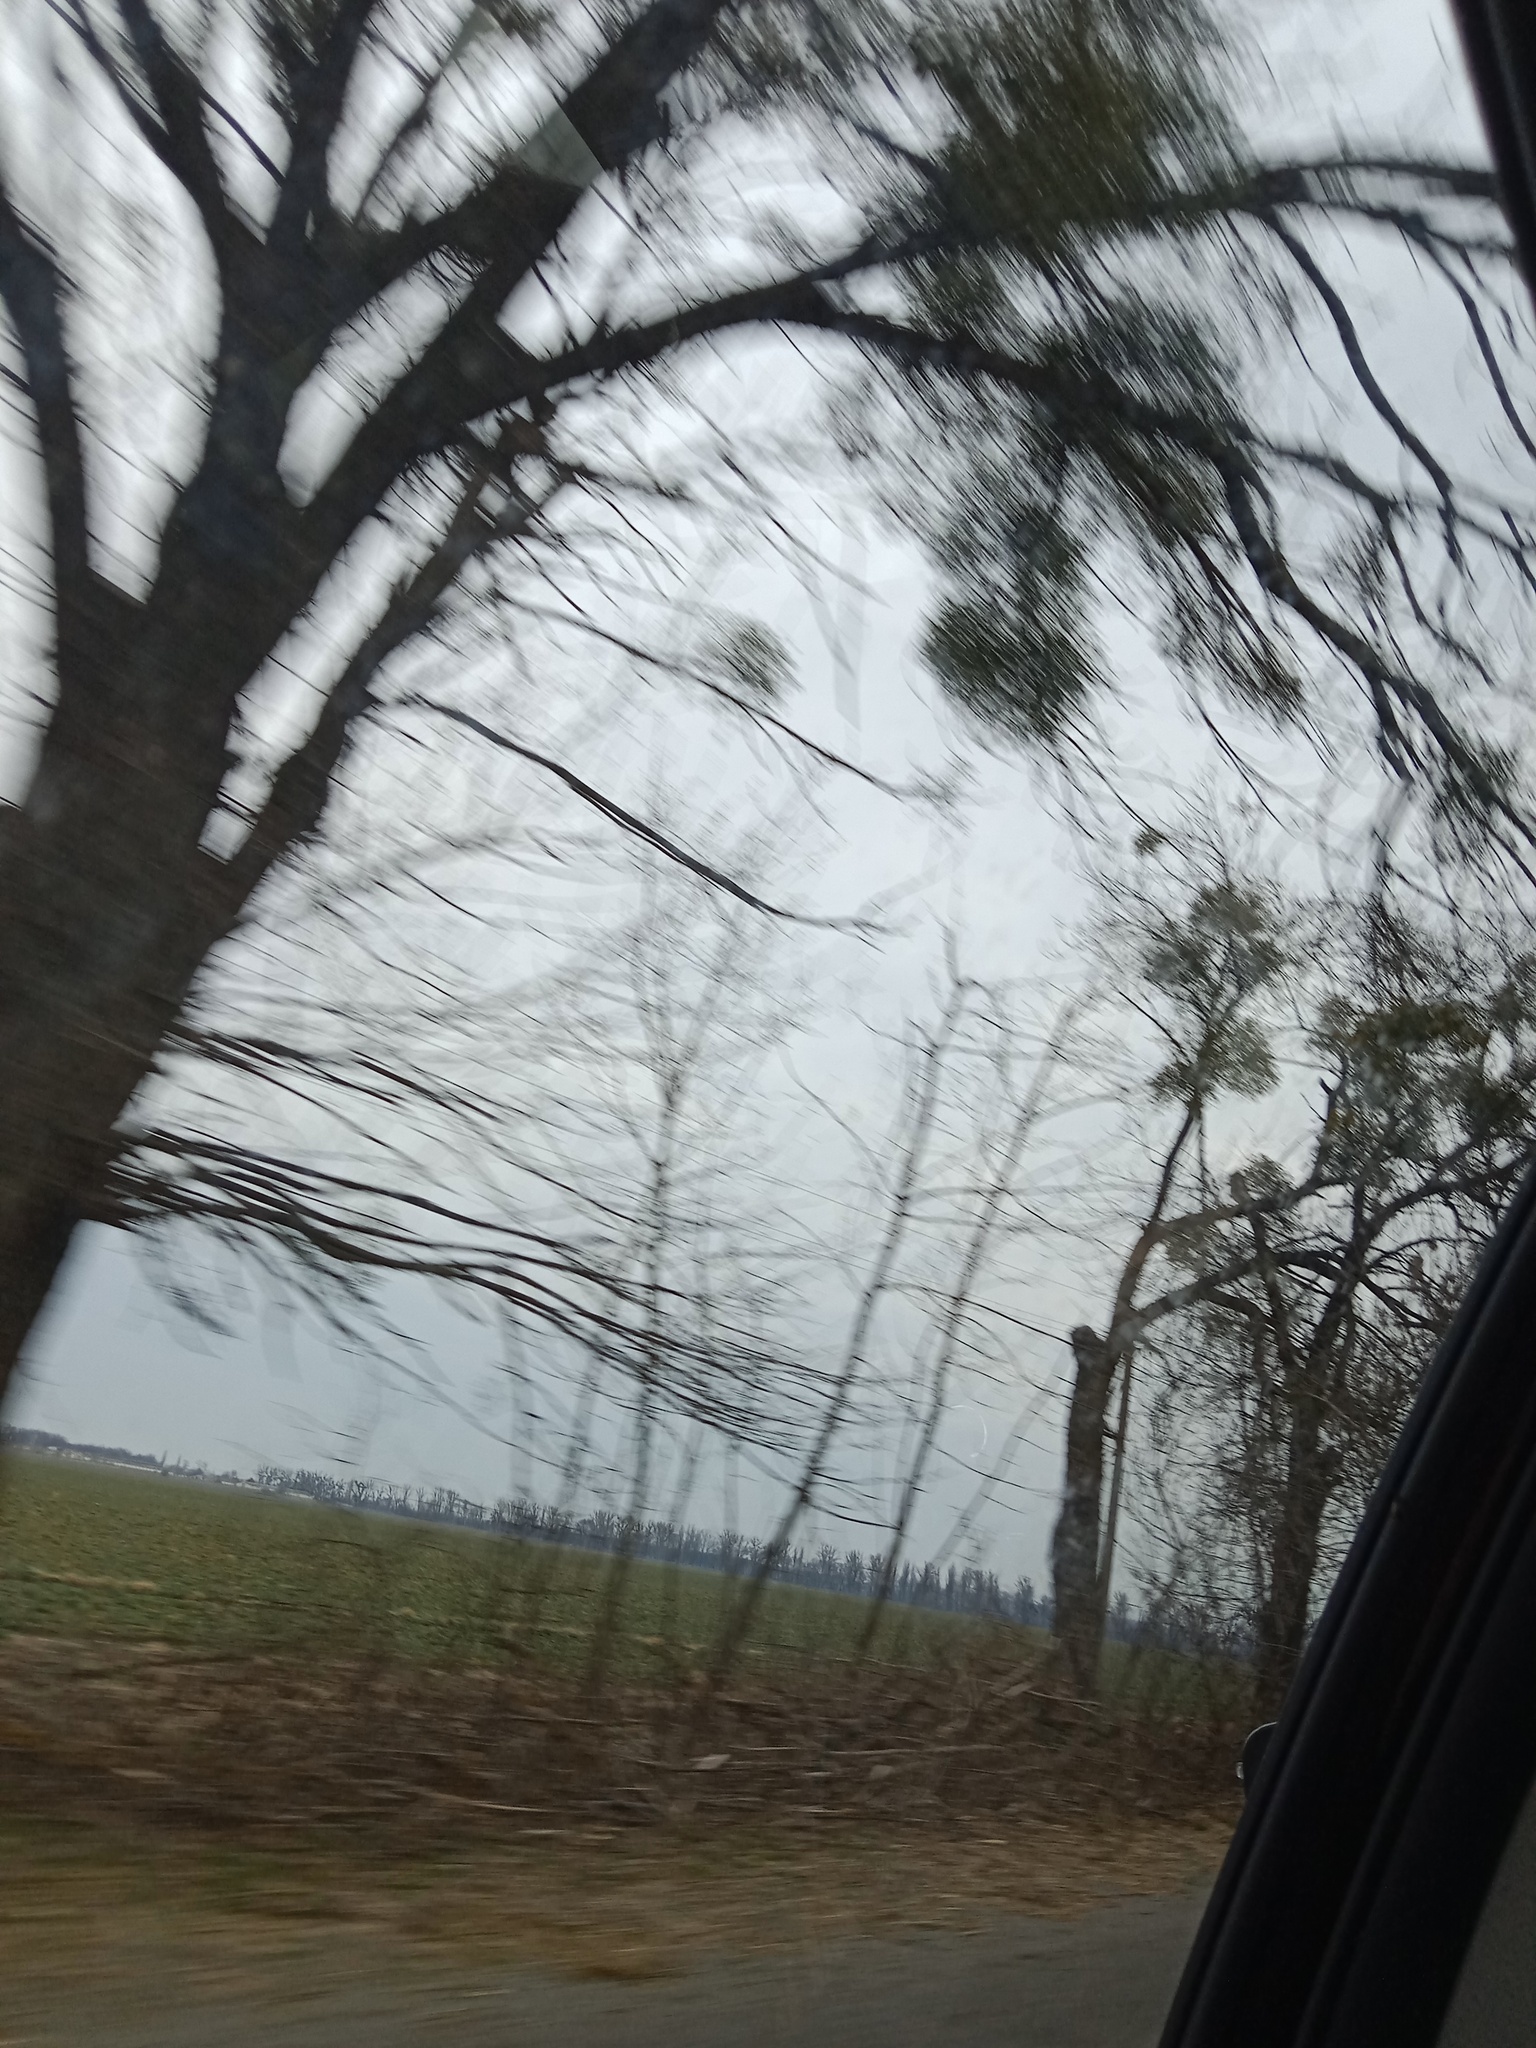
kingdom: Plantae
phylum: Tracheophyta
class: Magnoliopsida
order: Santalales
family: Viscaceae
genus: Viscum
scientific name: Viscum album
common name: Mistletoe
